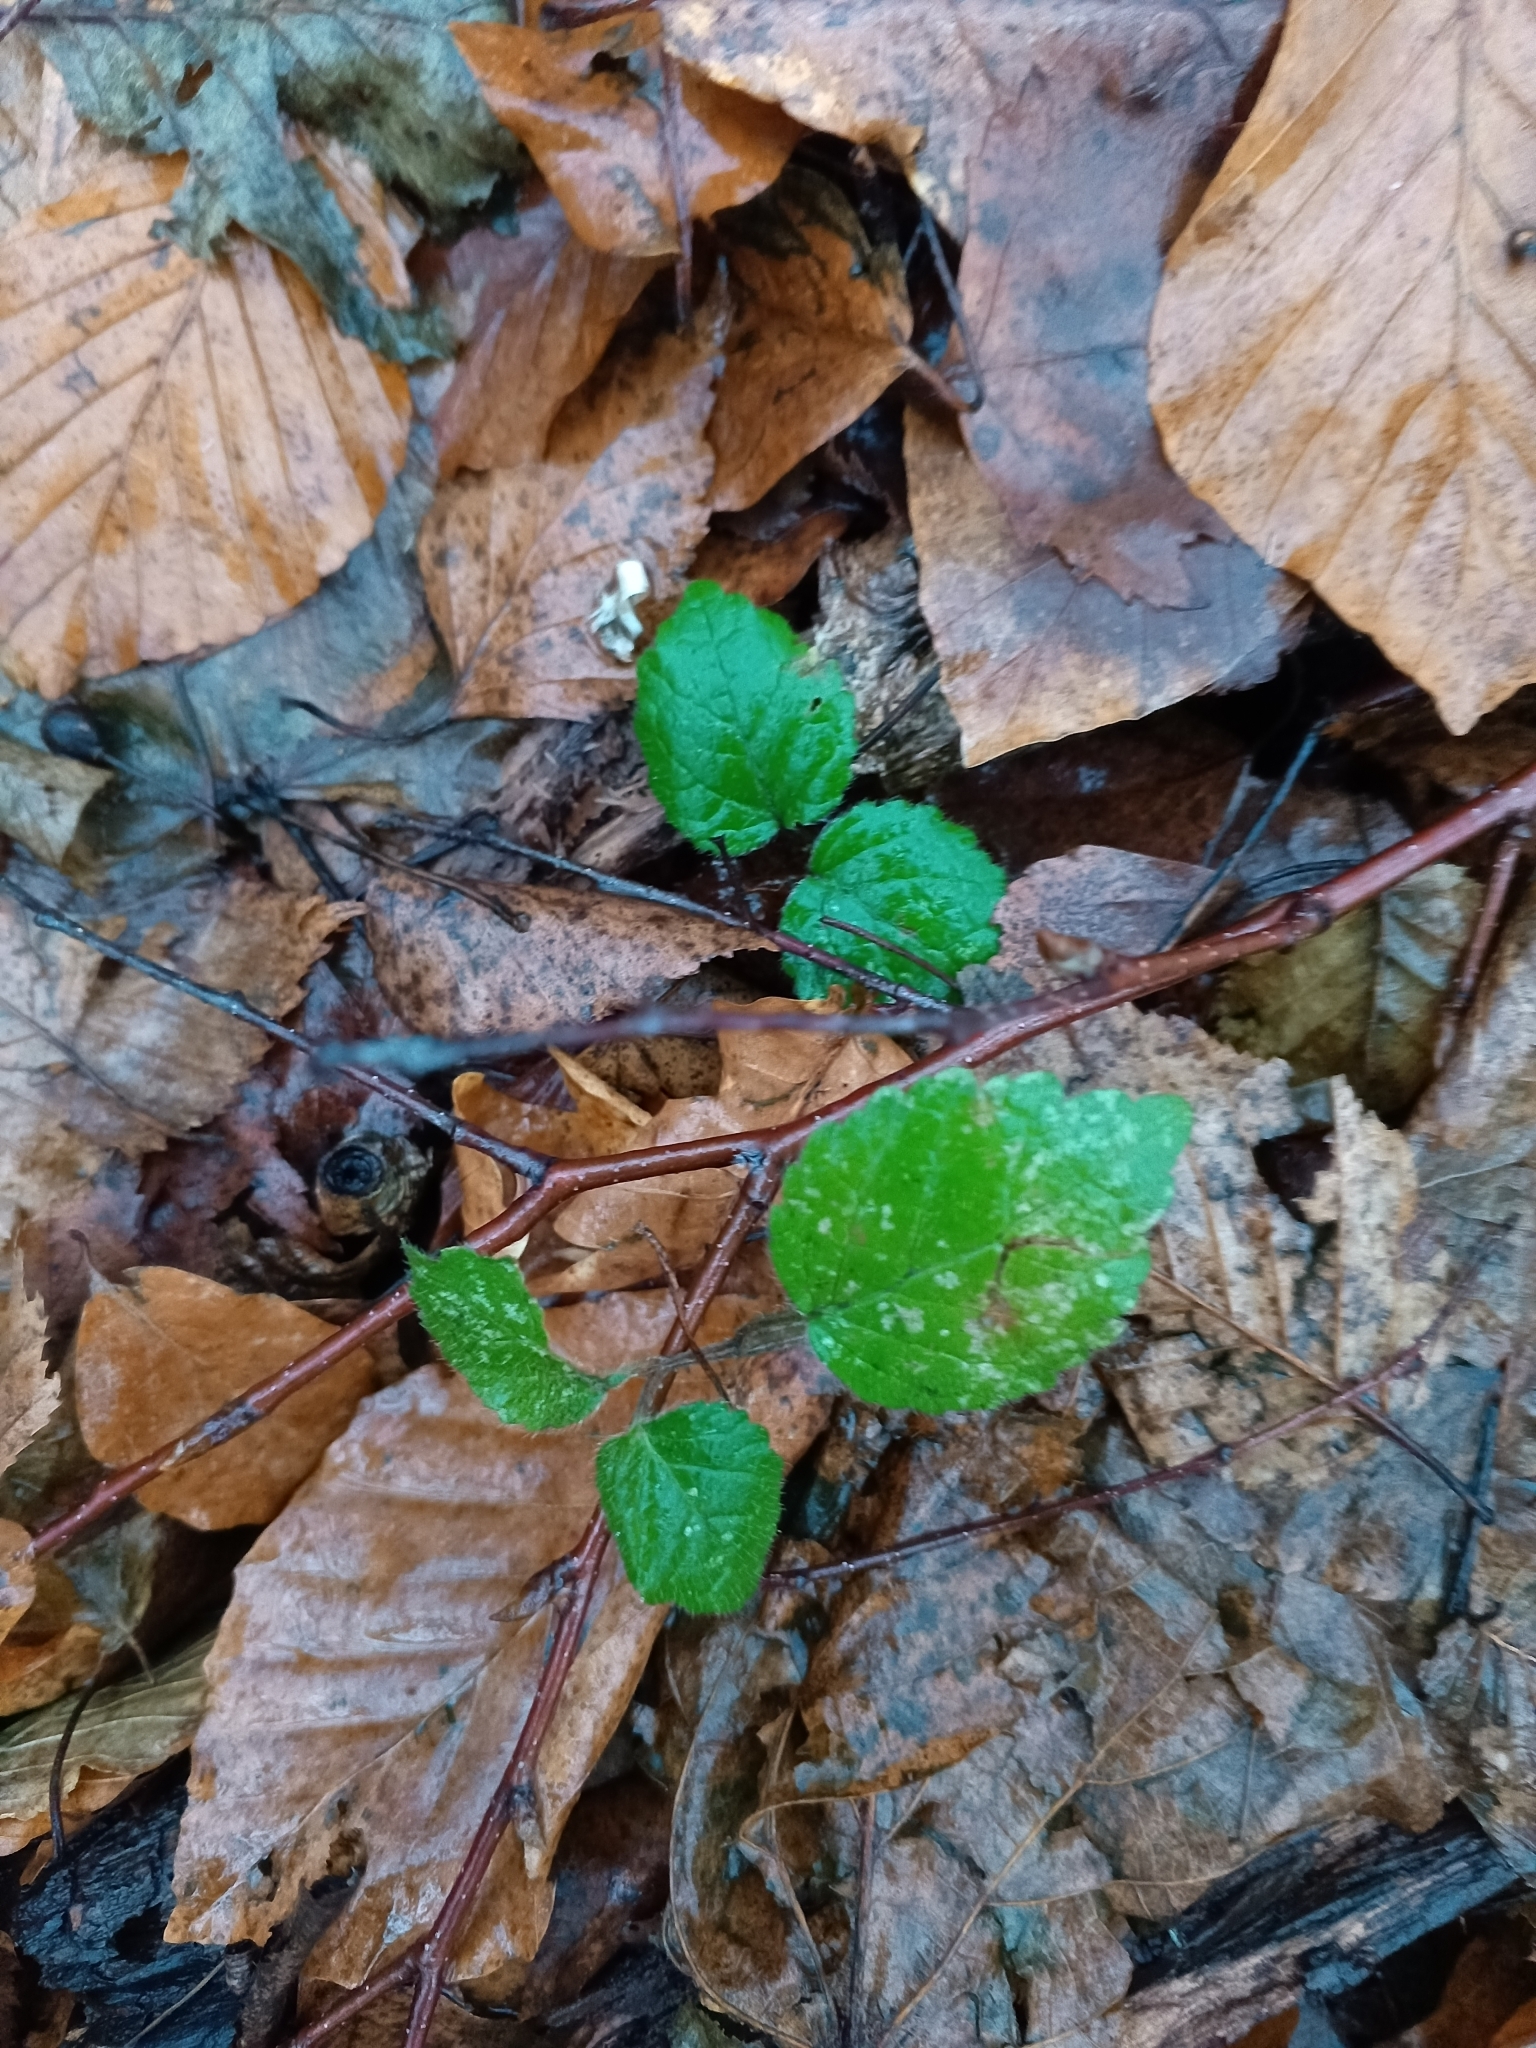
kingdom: Plantae
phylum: Tracheophyta
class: Magnoliopsida
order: Lamiales
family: Lamiaceae
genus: Lamium
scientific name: Lamium galeobdolon
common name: Yellow archangel
